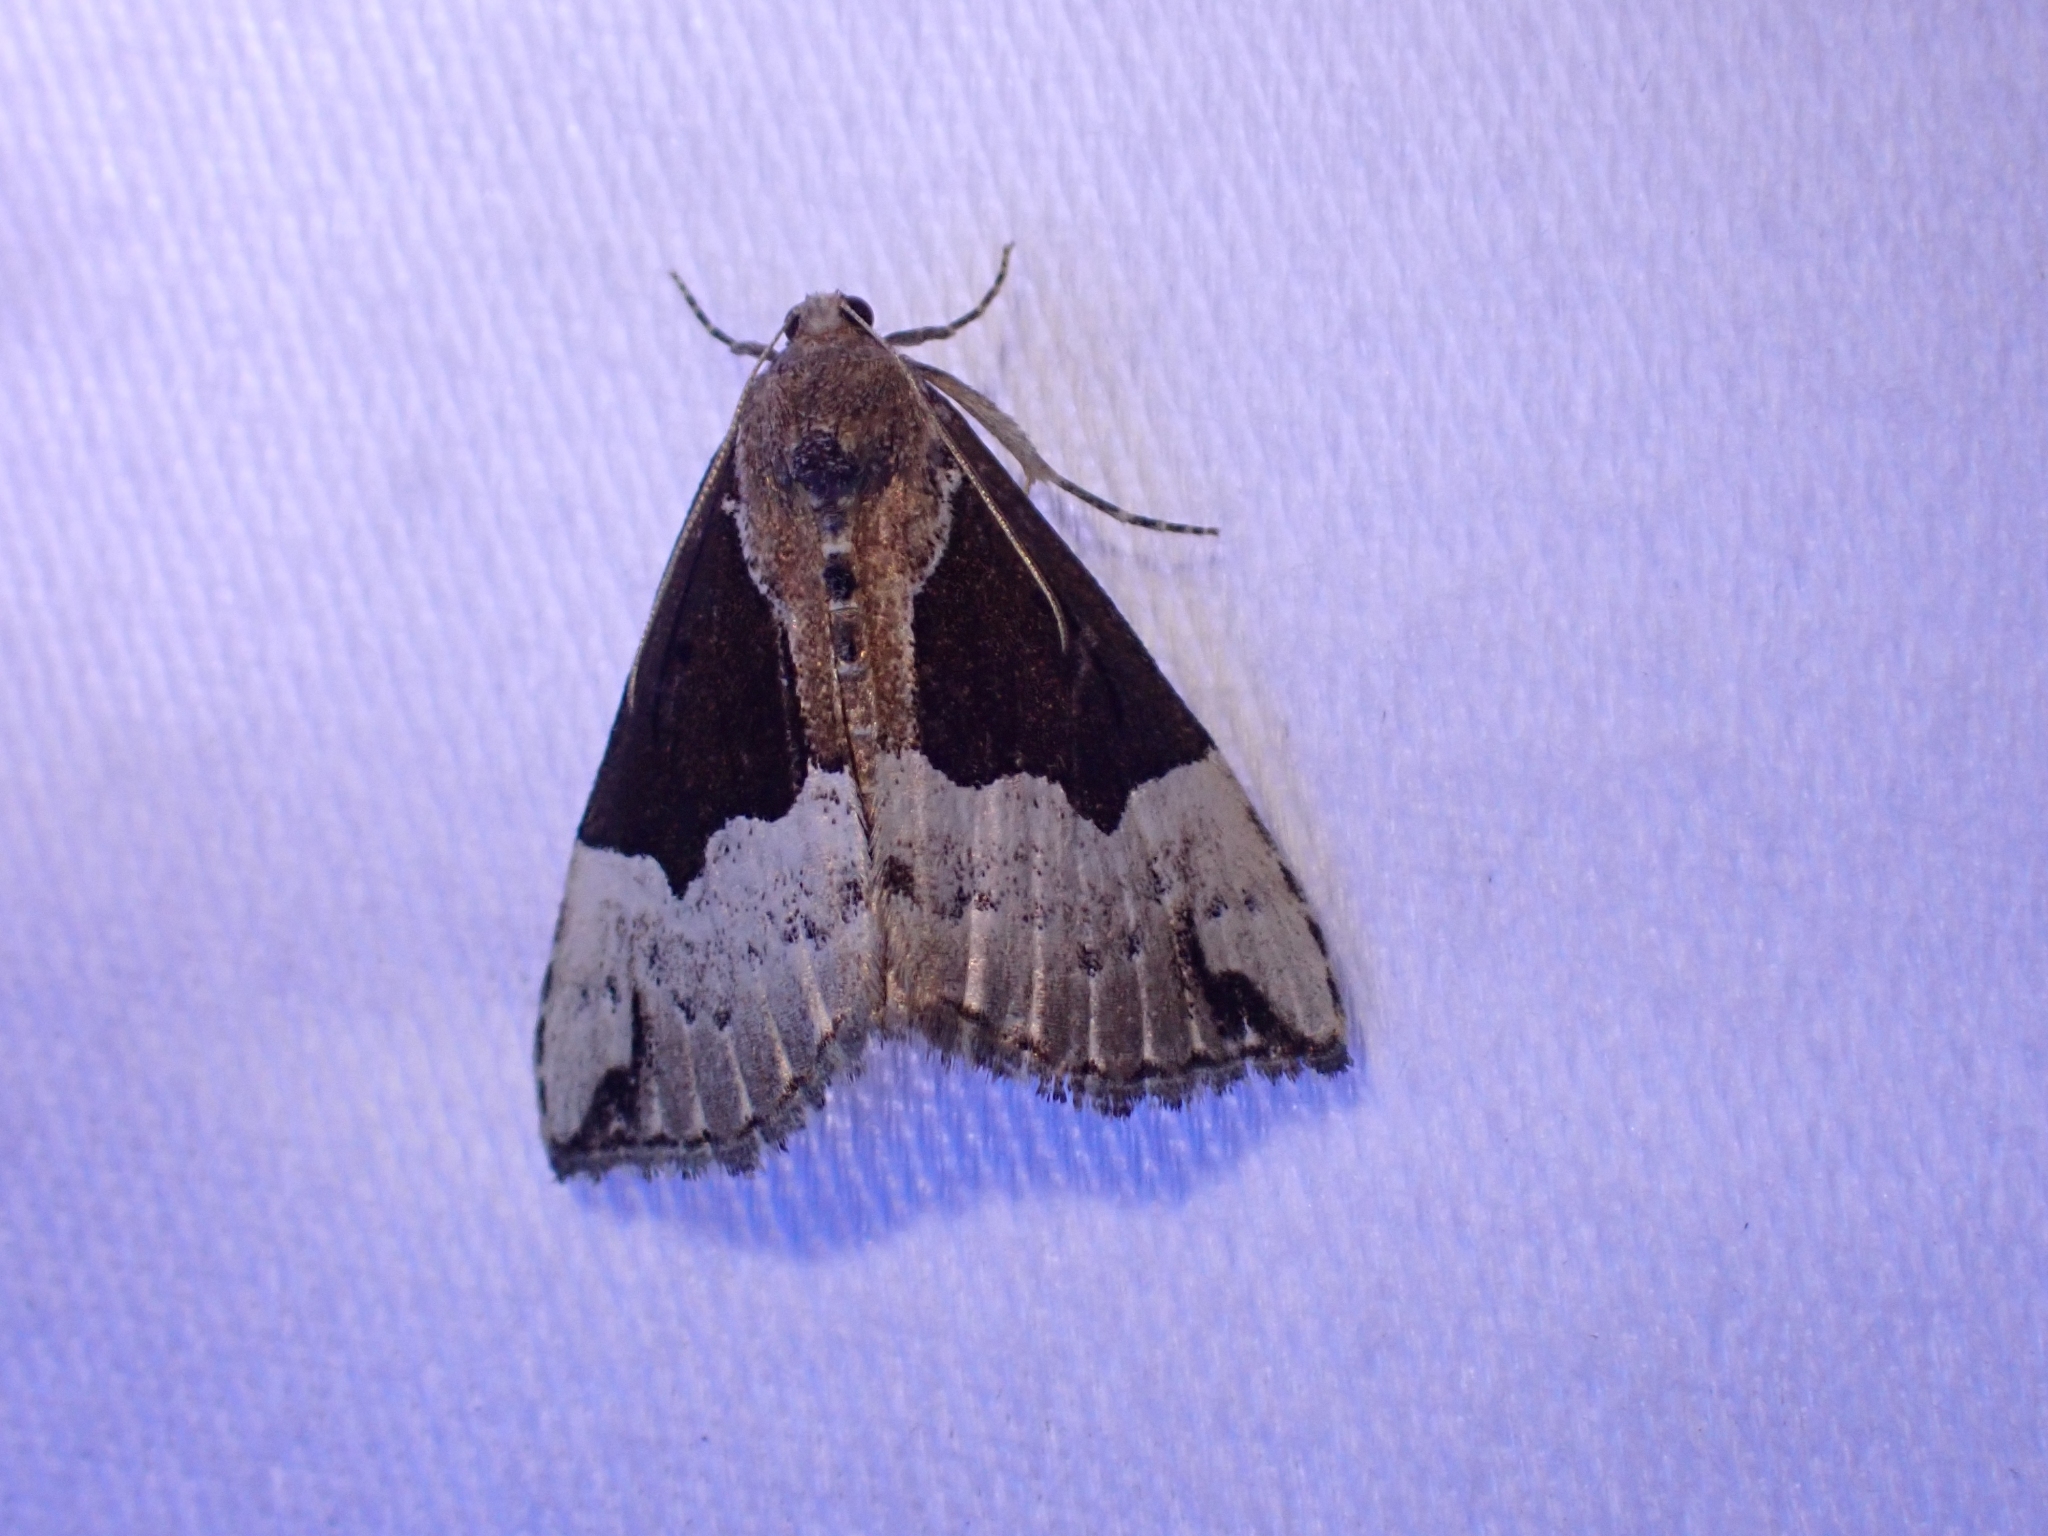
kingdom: Animalia
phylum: Arthropoda
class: Insecta
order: Lepidoptera
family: Erebidae
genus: Hypena
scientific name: Hypena bijugalis
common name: Dimorphic bomolocha moth
